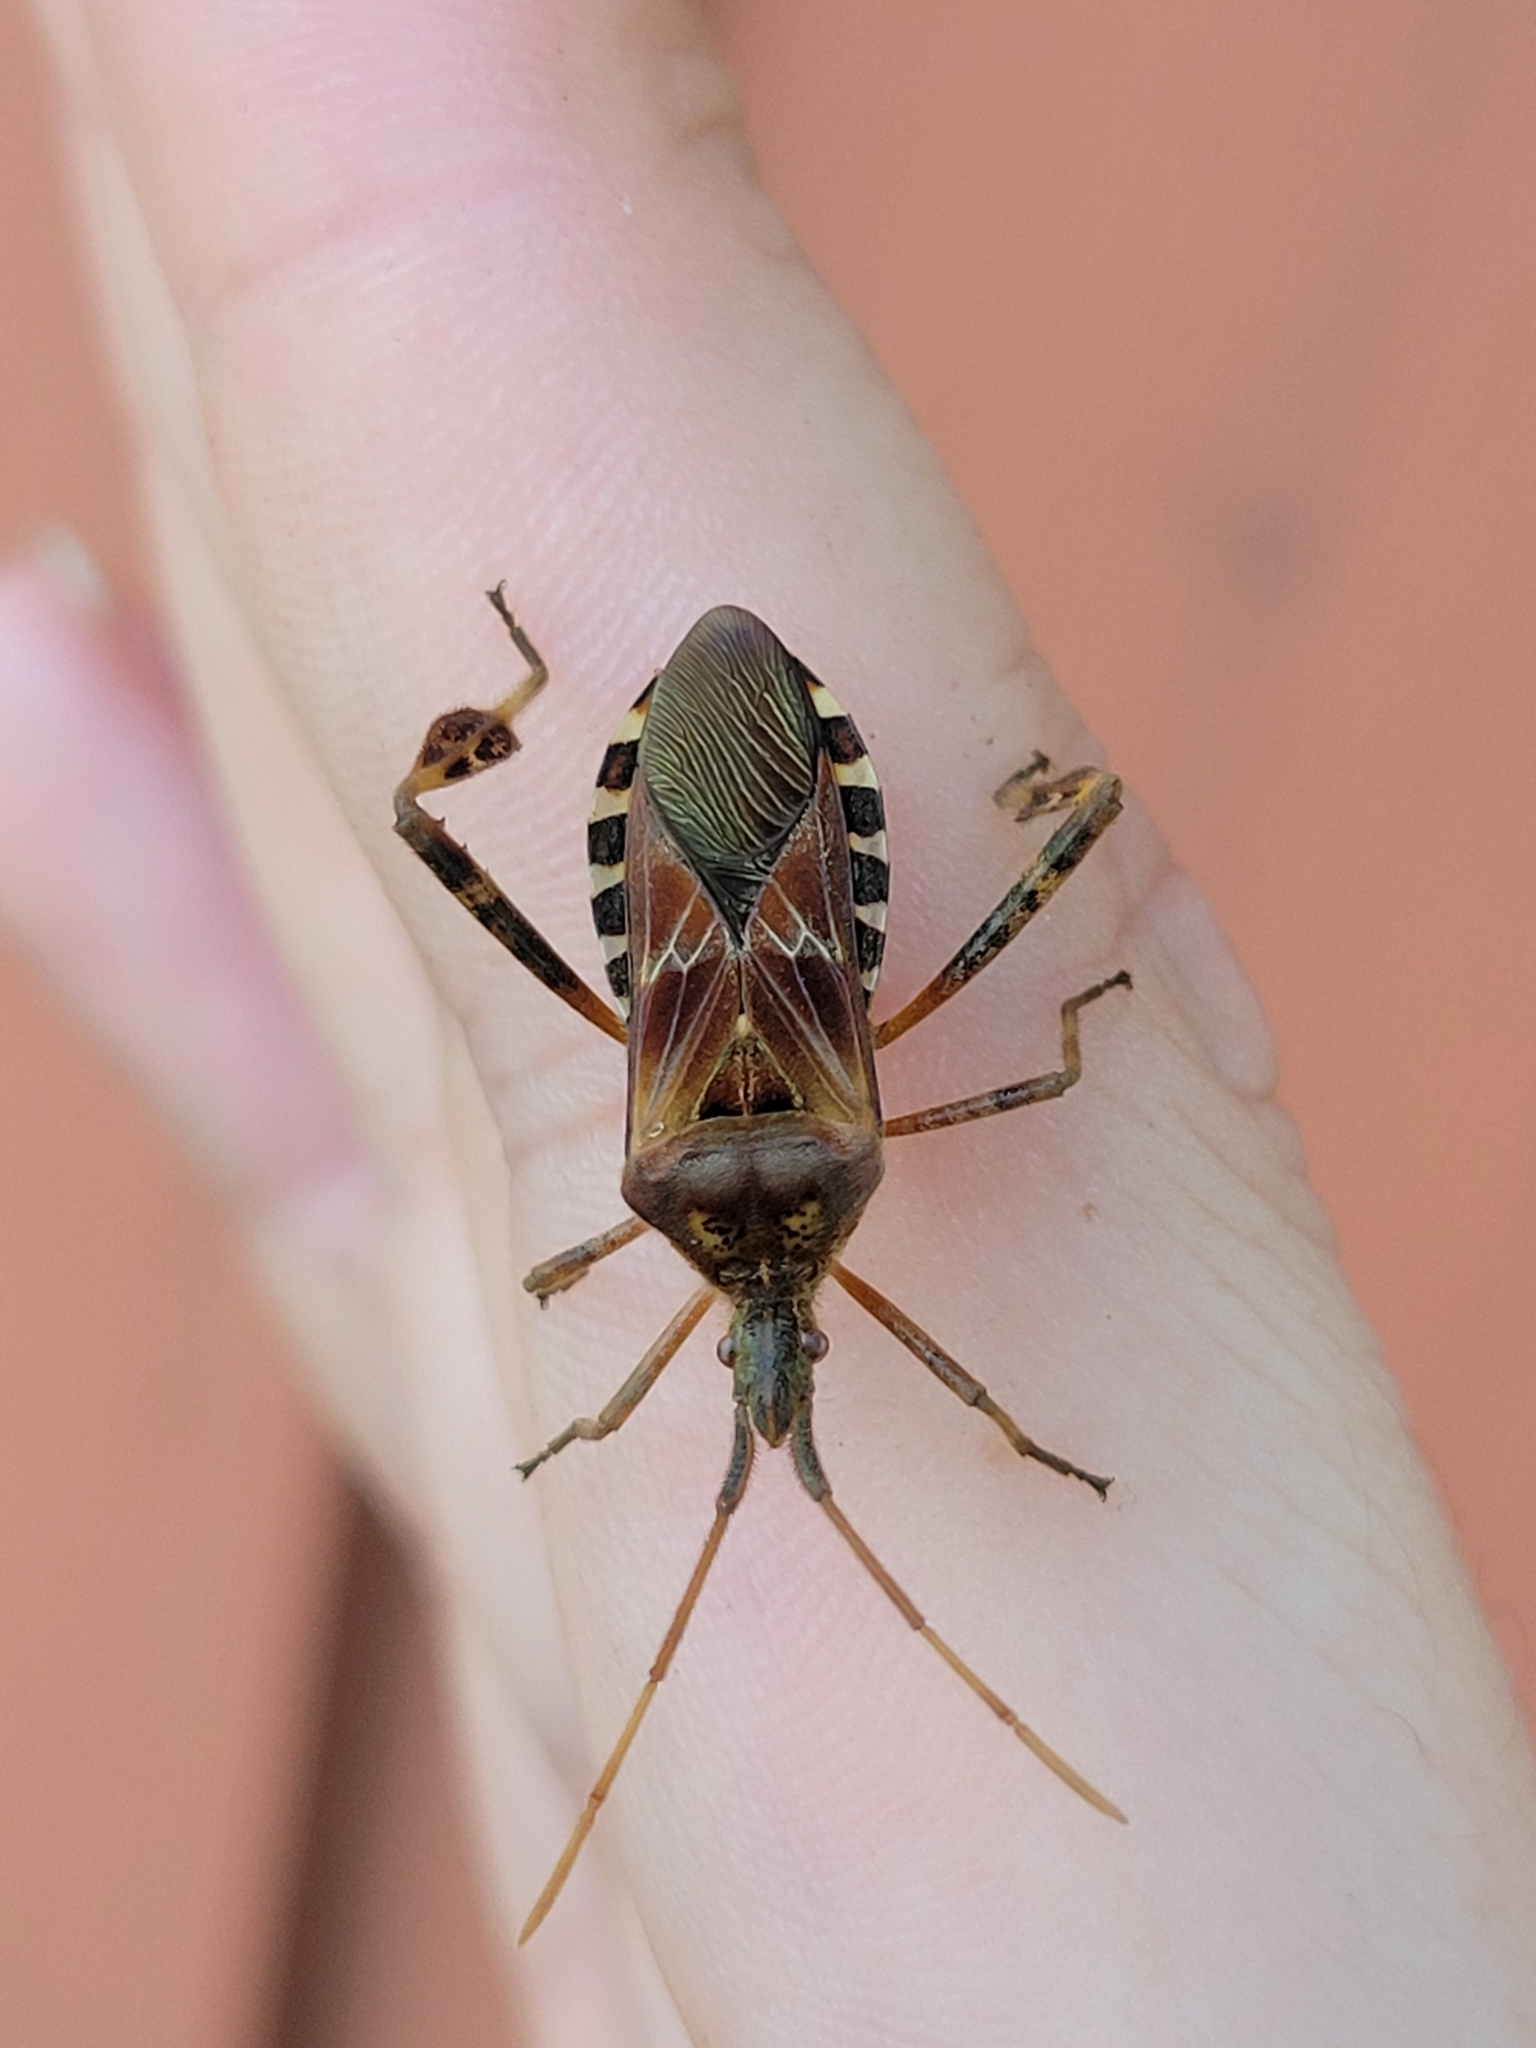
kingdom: Animalia
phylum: Arthropoda
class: Insecta
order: Hemiptera
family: Coreidae
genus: Leptoglossus
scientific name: Leptoglossus occidentalis
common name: Western conifer-seed bug
